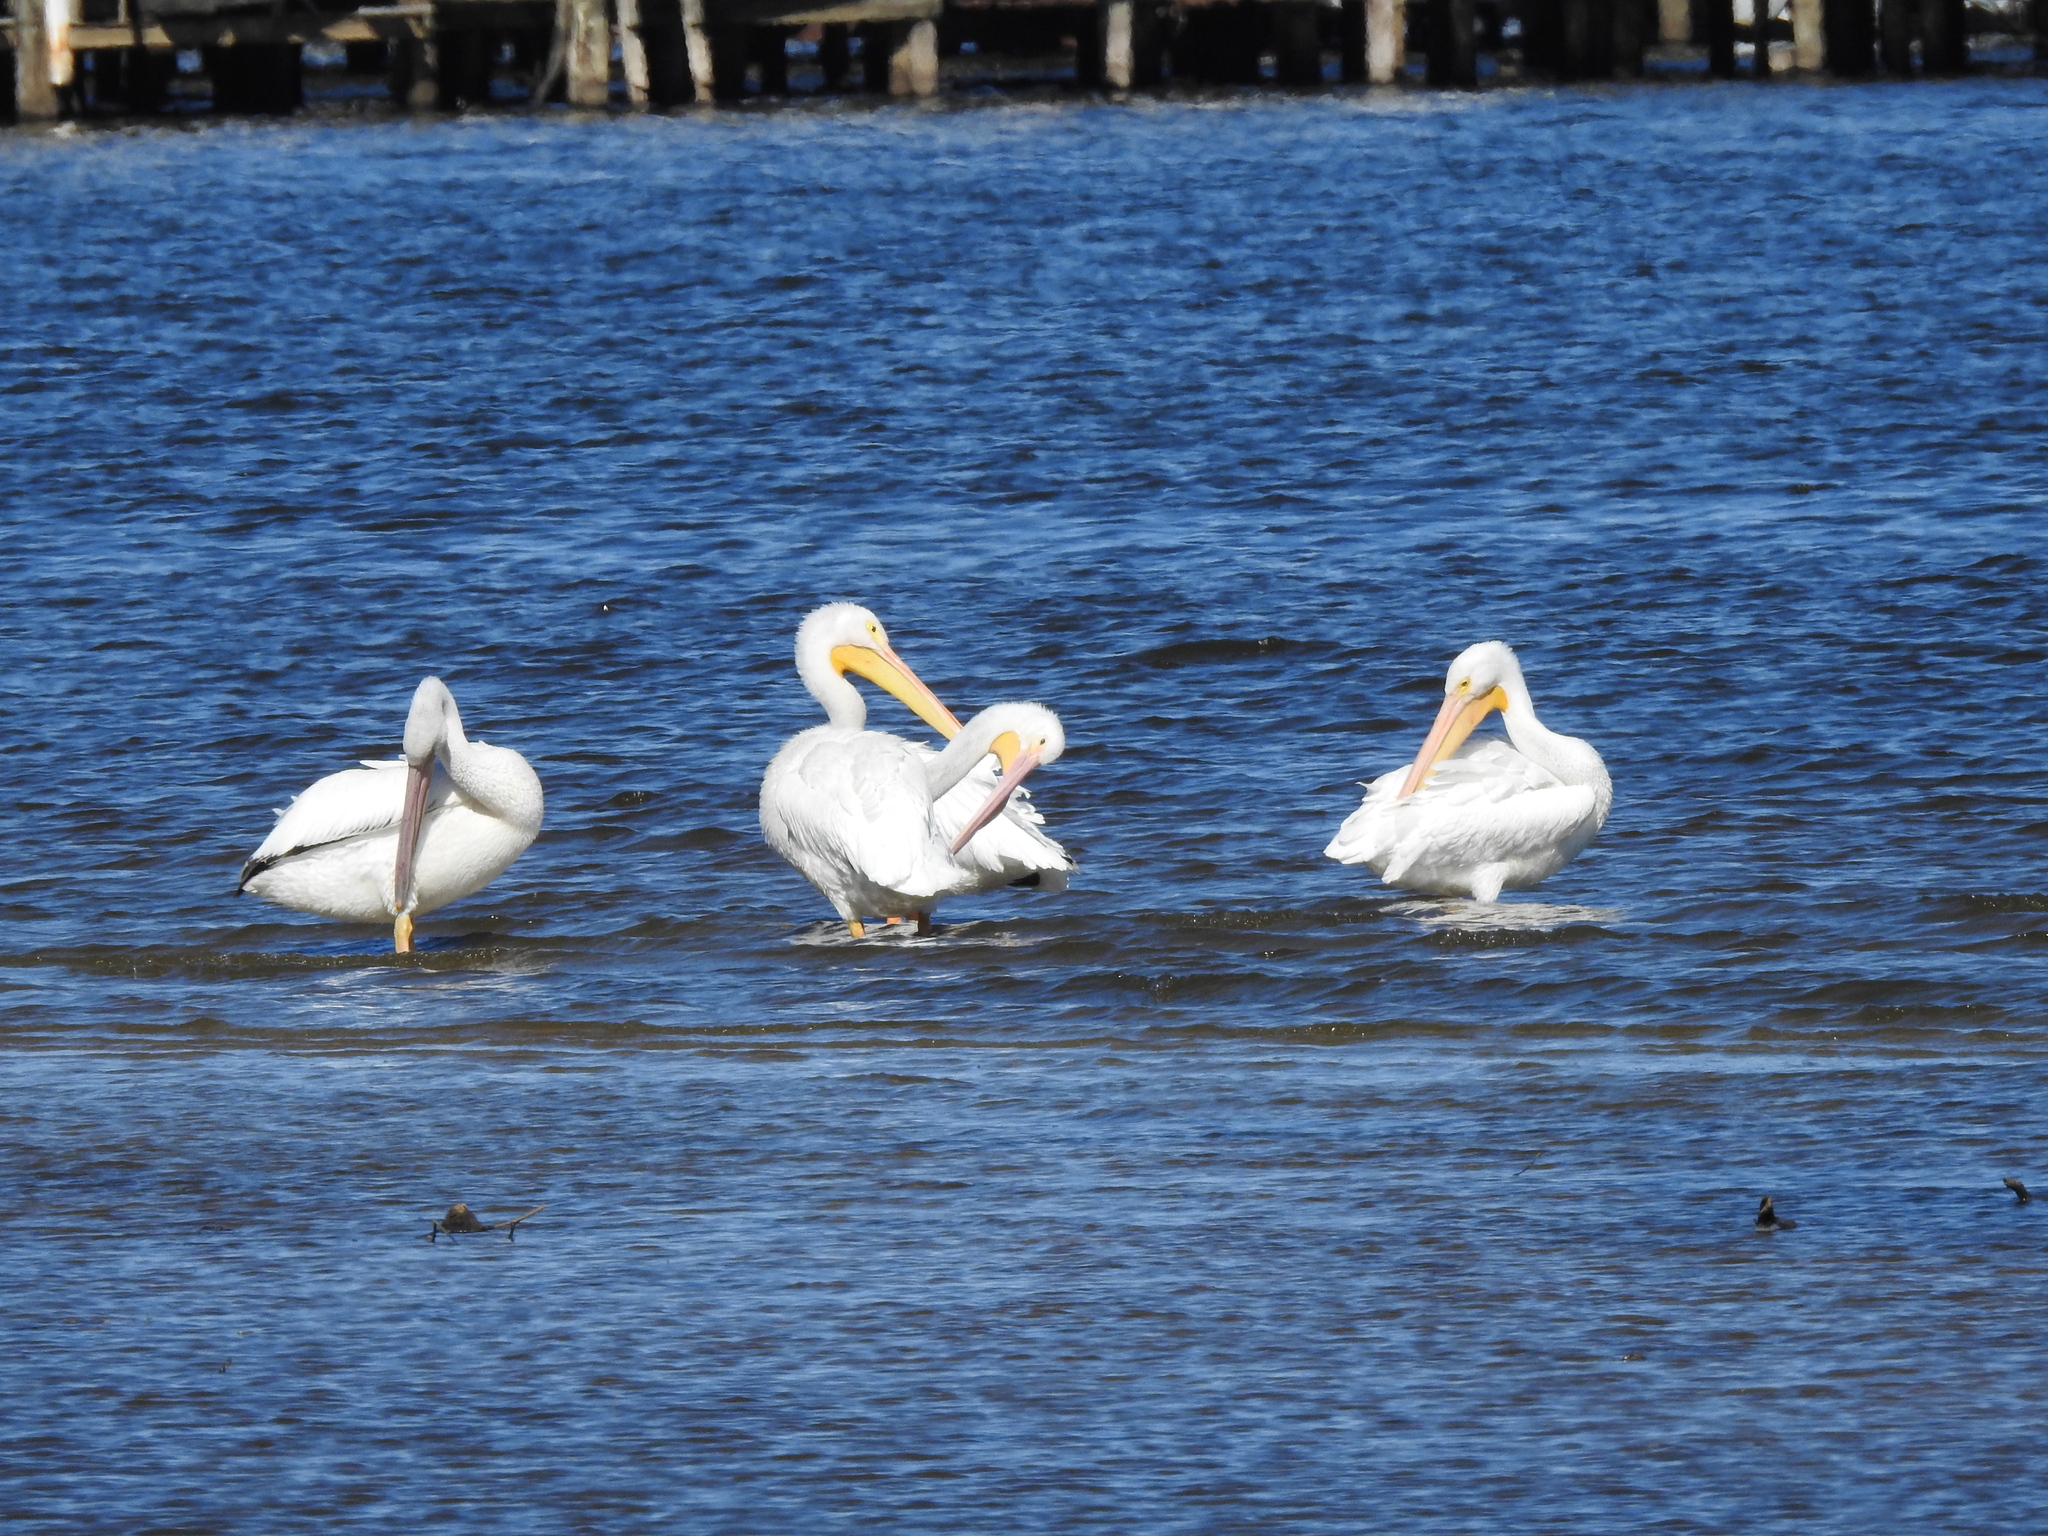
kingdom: Animalia
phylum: Chordata
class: Aves
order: Pelecaniformes
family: Pelecanidae
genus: Pelecanus
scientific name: Pelecanus erythrorhynchos
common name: American white pelican
